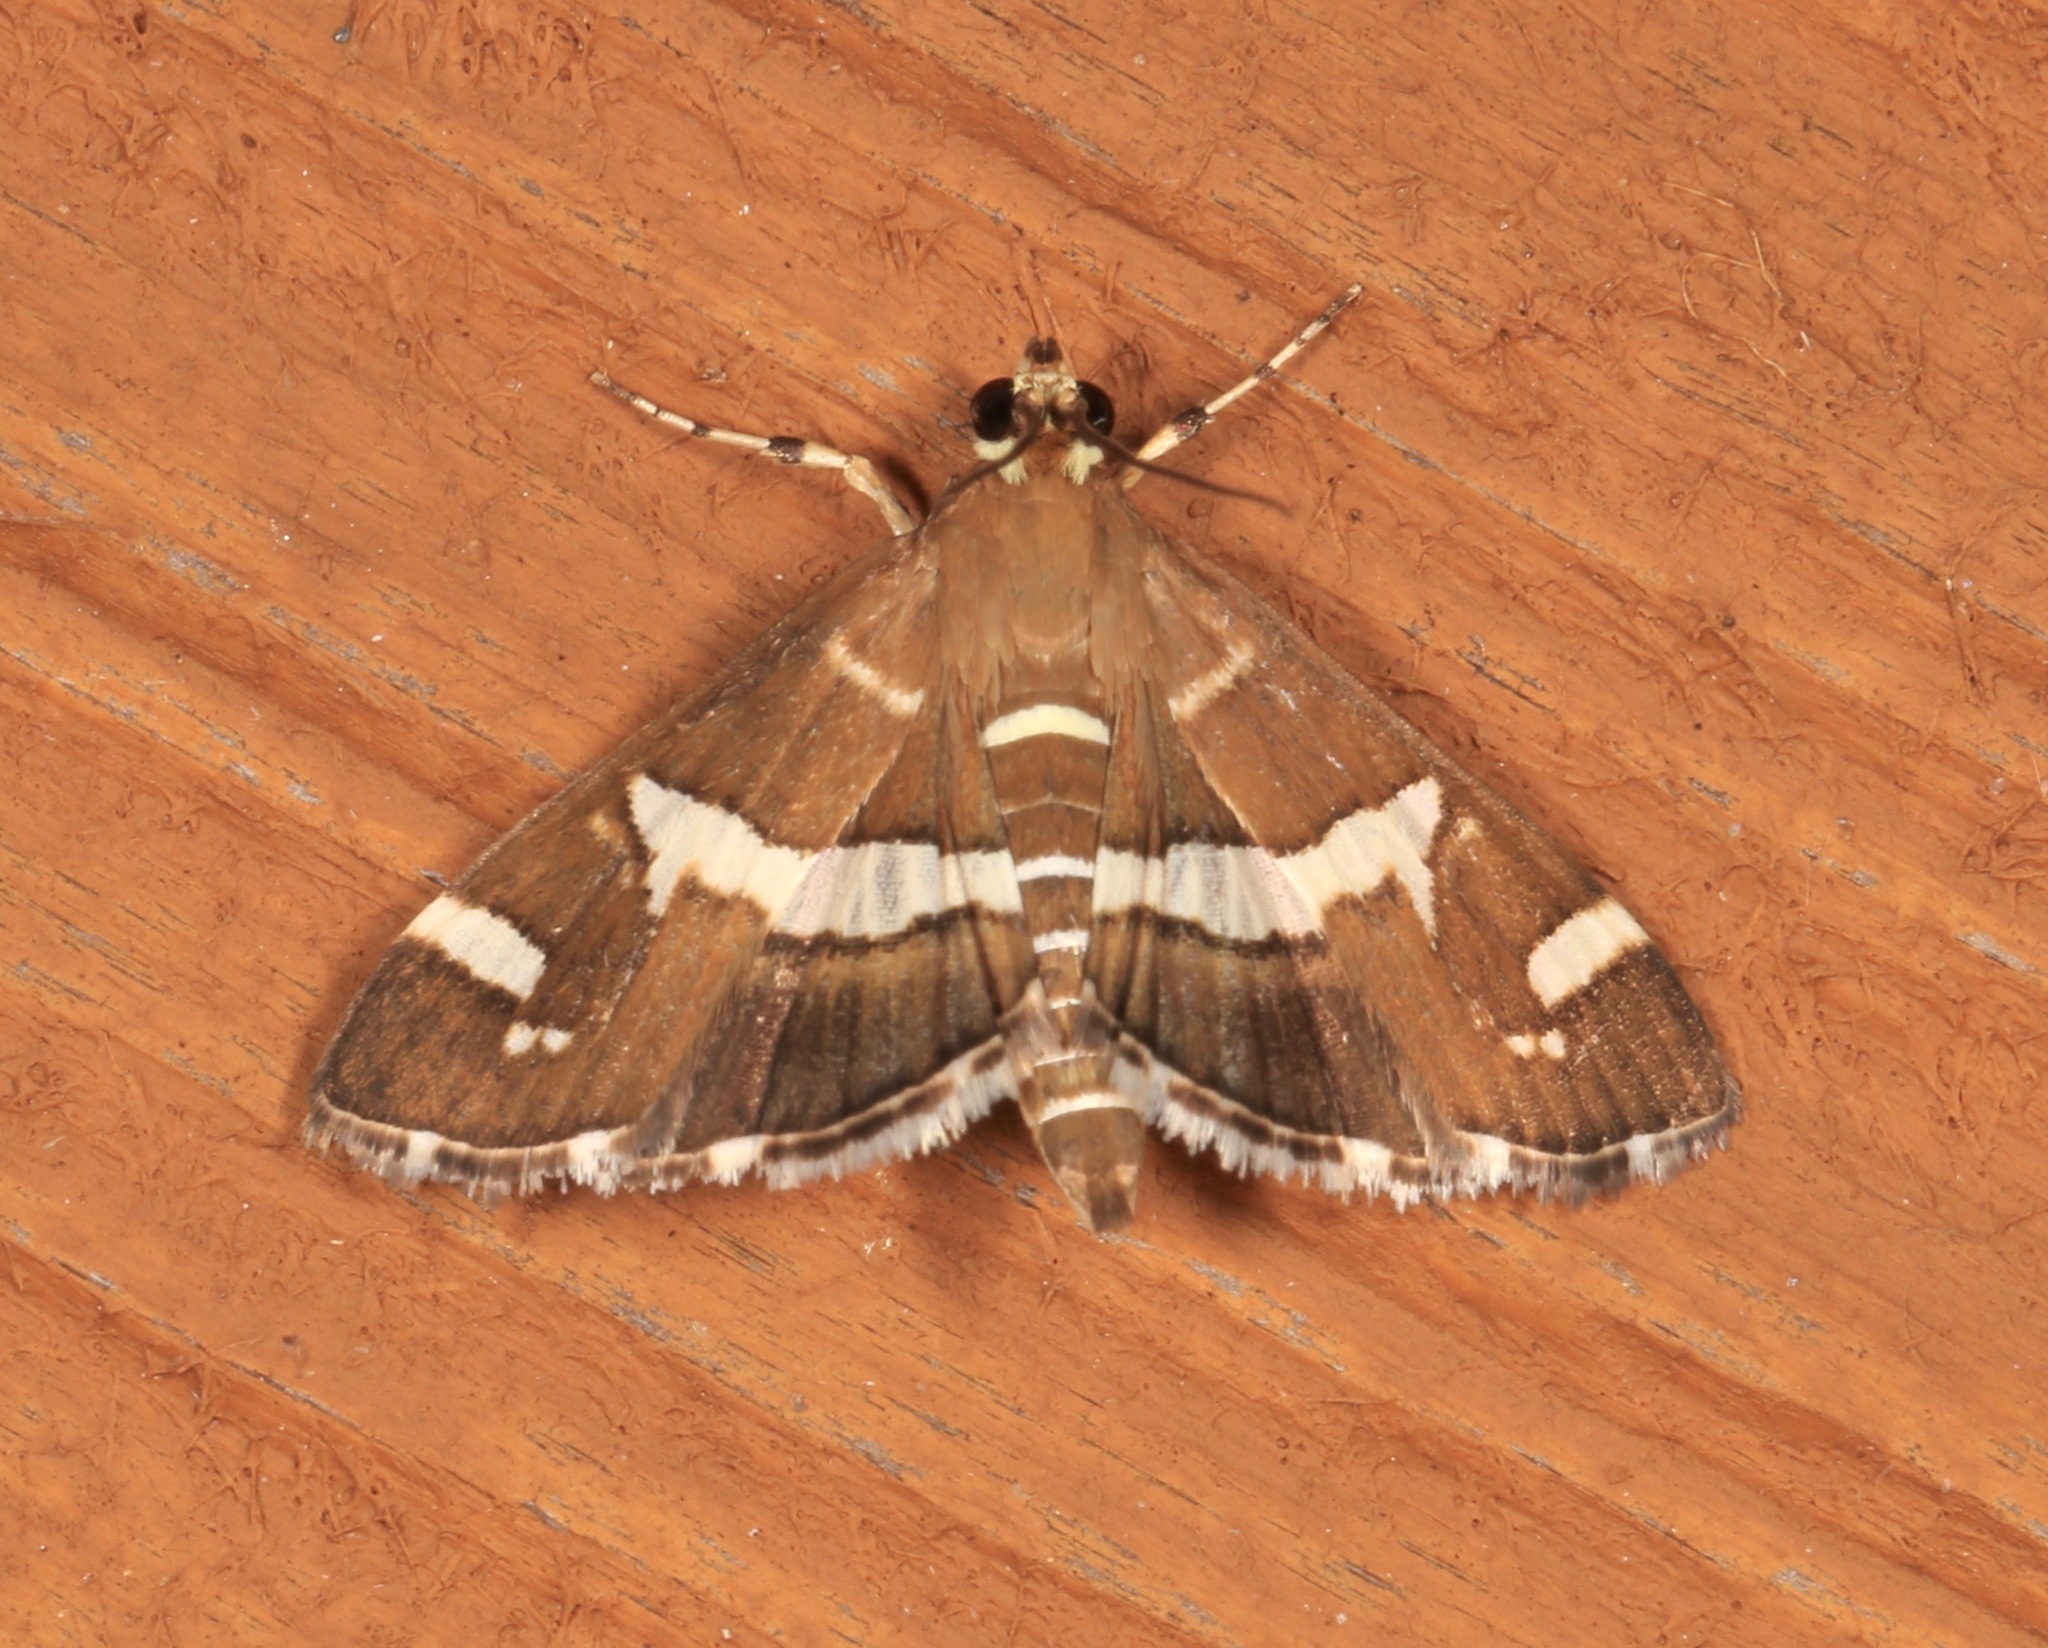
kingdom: Animalia
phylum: Arthropoda
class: Insecta
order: Lepidoptera
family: Crambidae
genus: Spoladea
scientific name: Spoladea recurvalis
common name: Beet webworm moth
